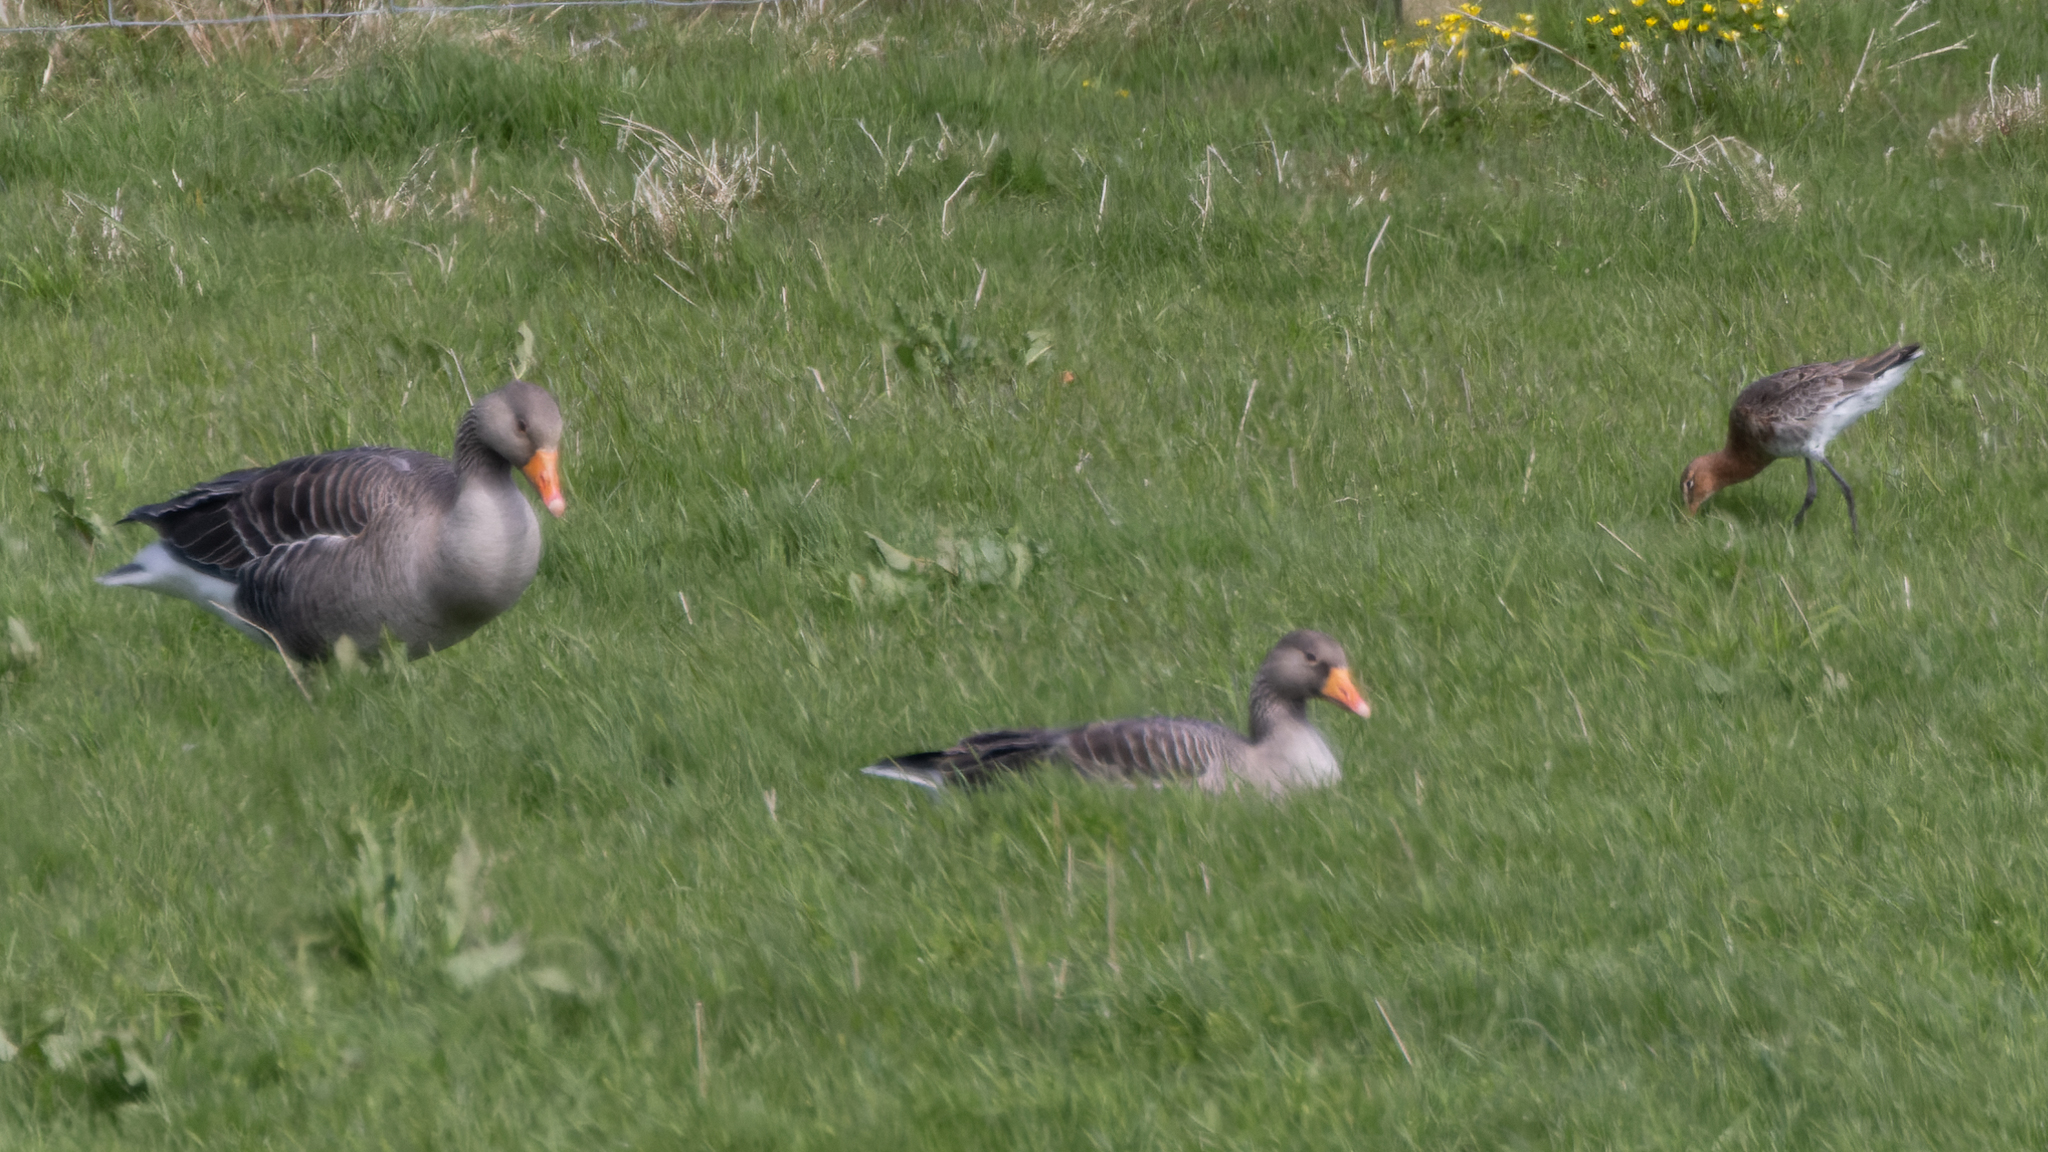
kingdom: Animalia
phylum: Chordata
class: Aves
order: Anseriformes
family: Anatidae
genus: Anser
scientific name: Anser anser
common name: Greylag goose
